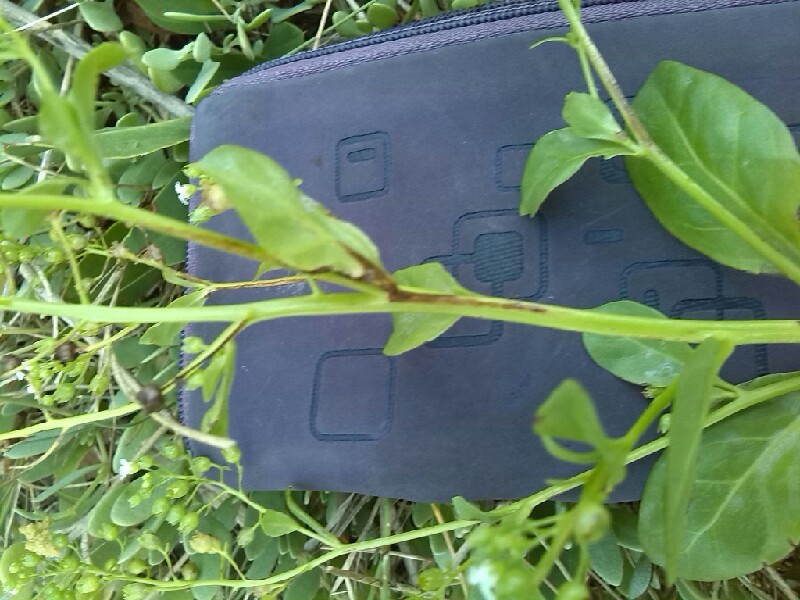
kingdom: Plantae
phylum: Tracheophyta
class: Magnoliopsida
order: Ericales
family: Primulaceae
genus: Samolus
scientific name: Samolus valerandi
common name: Brookweed
